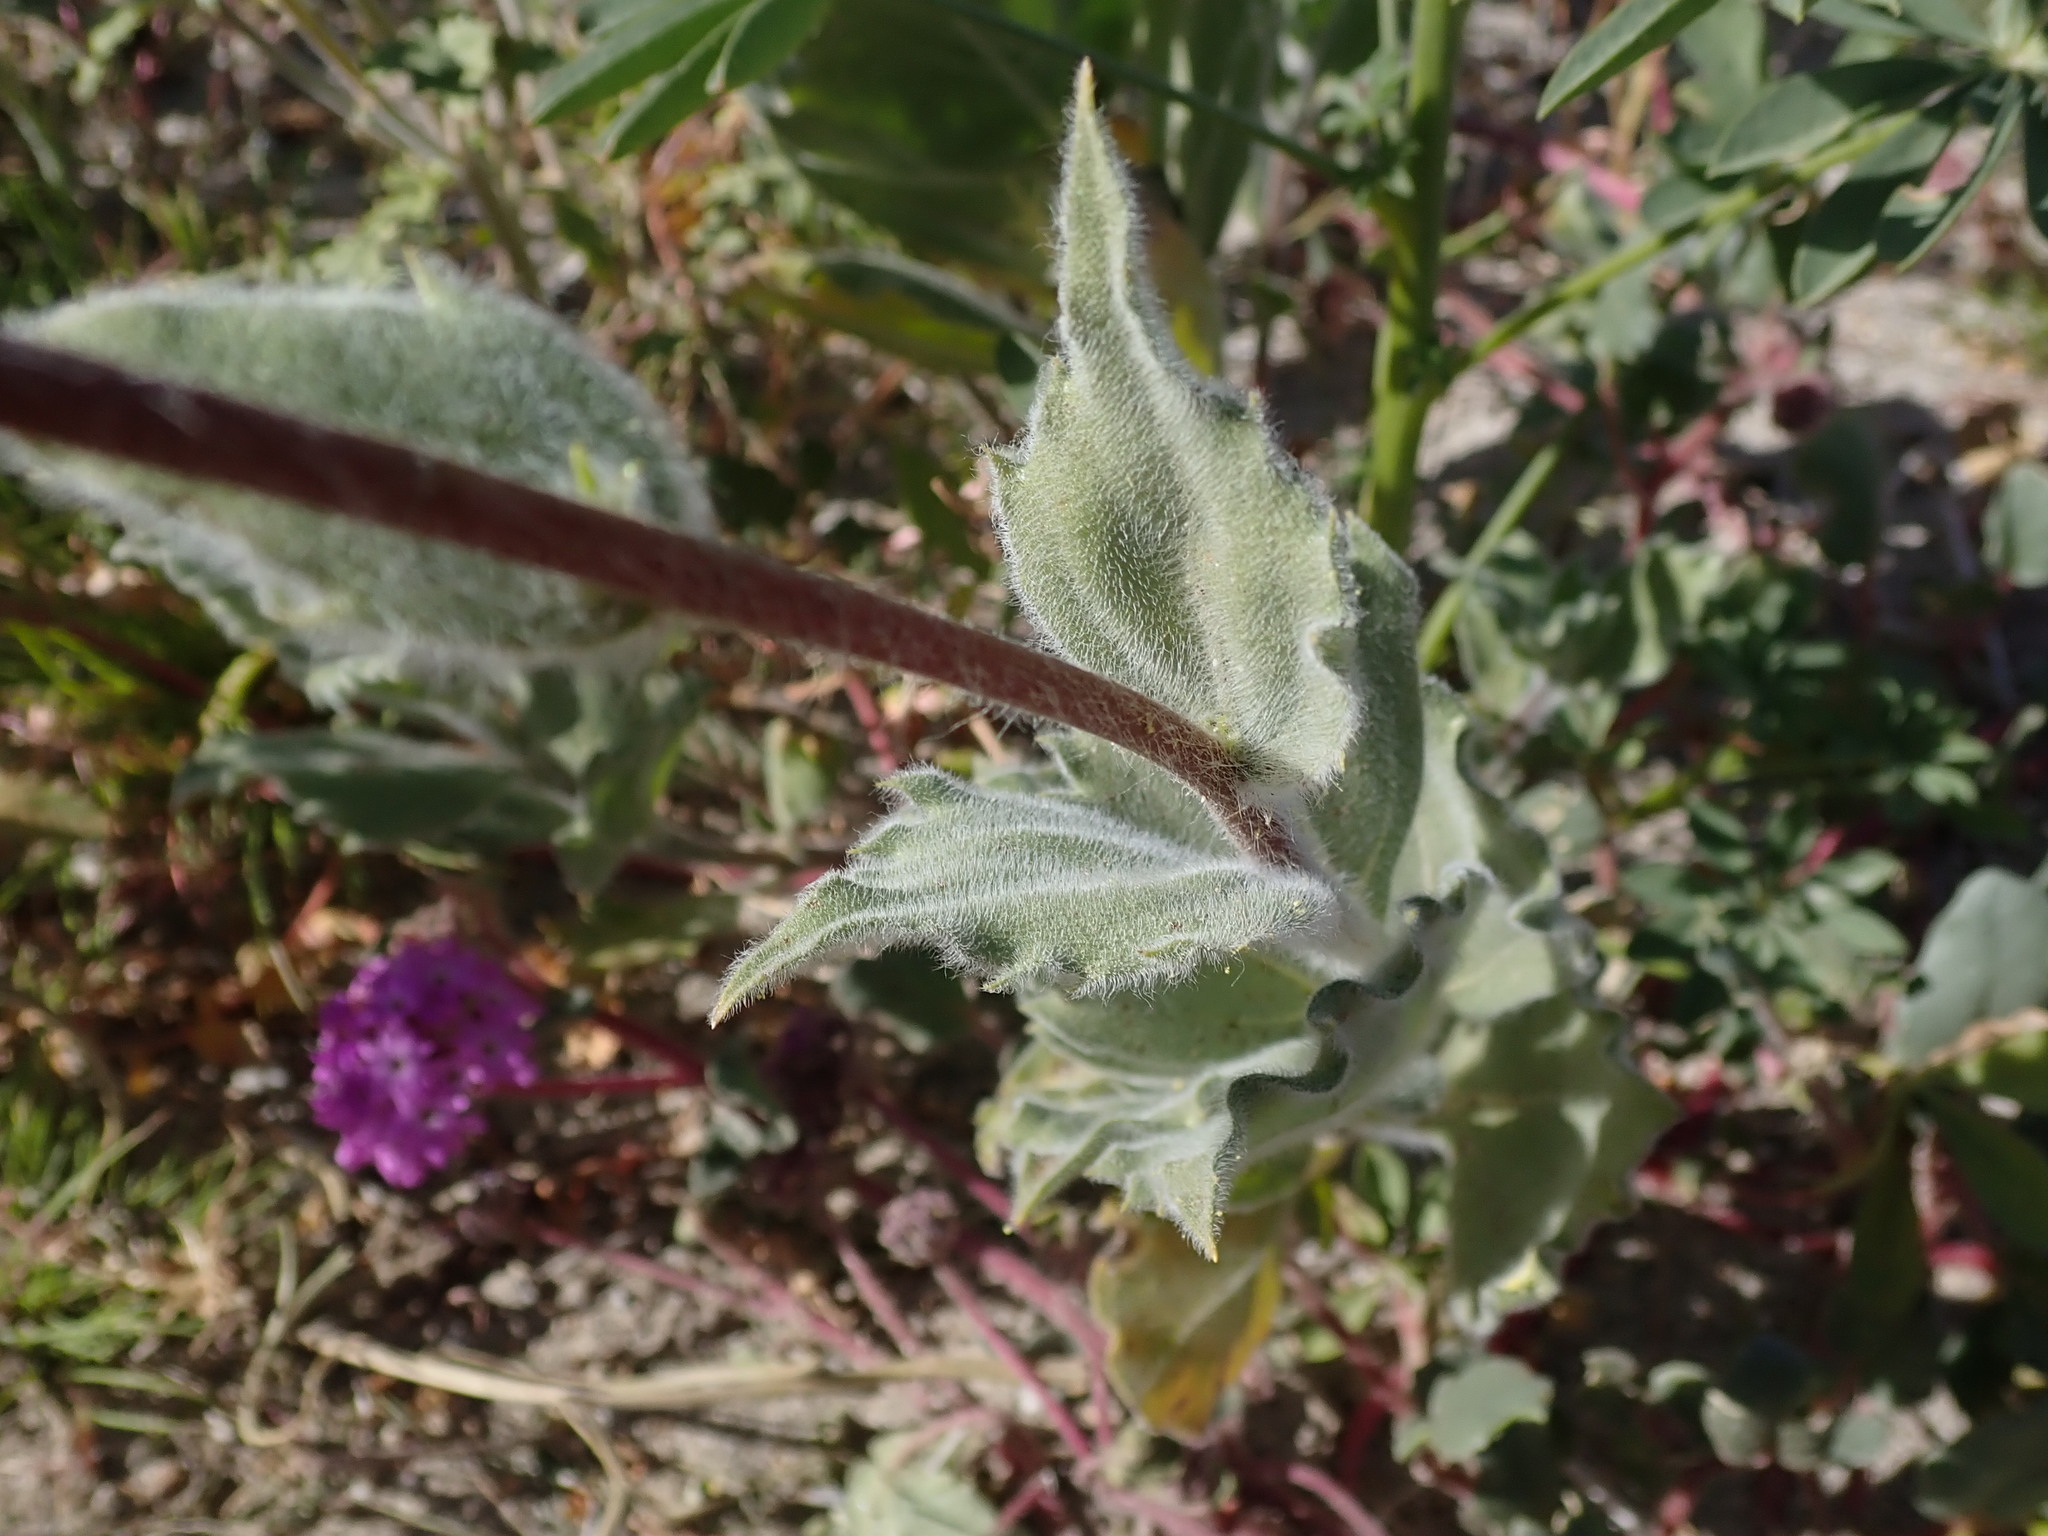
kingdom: Plantae
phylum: Tracheophyta
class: Magnoliopsida
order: Asterales
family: Asteraceae
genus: Geraea
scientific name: Geraea canescens
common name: Desert-gold
